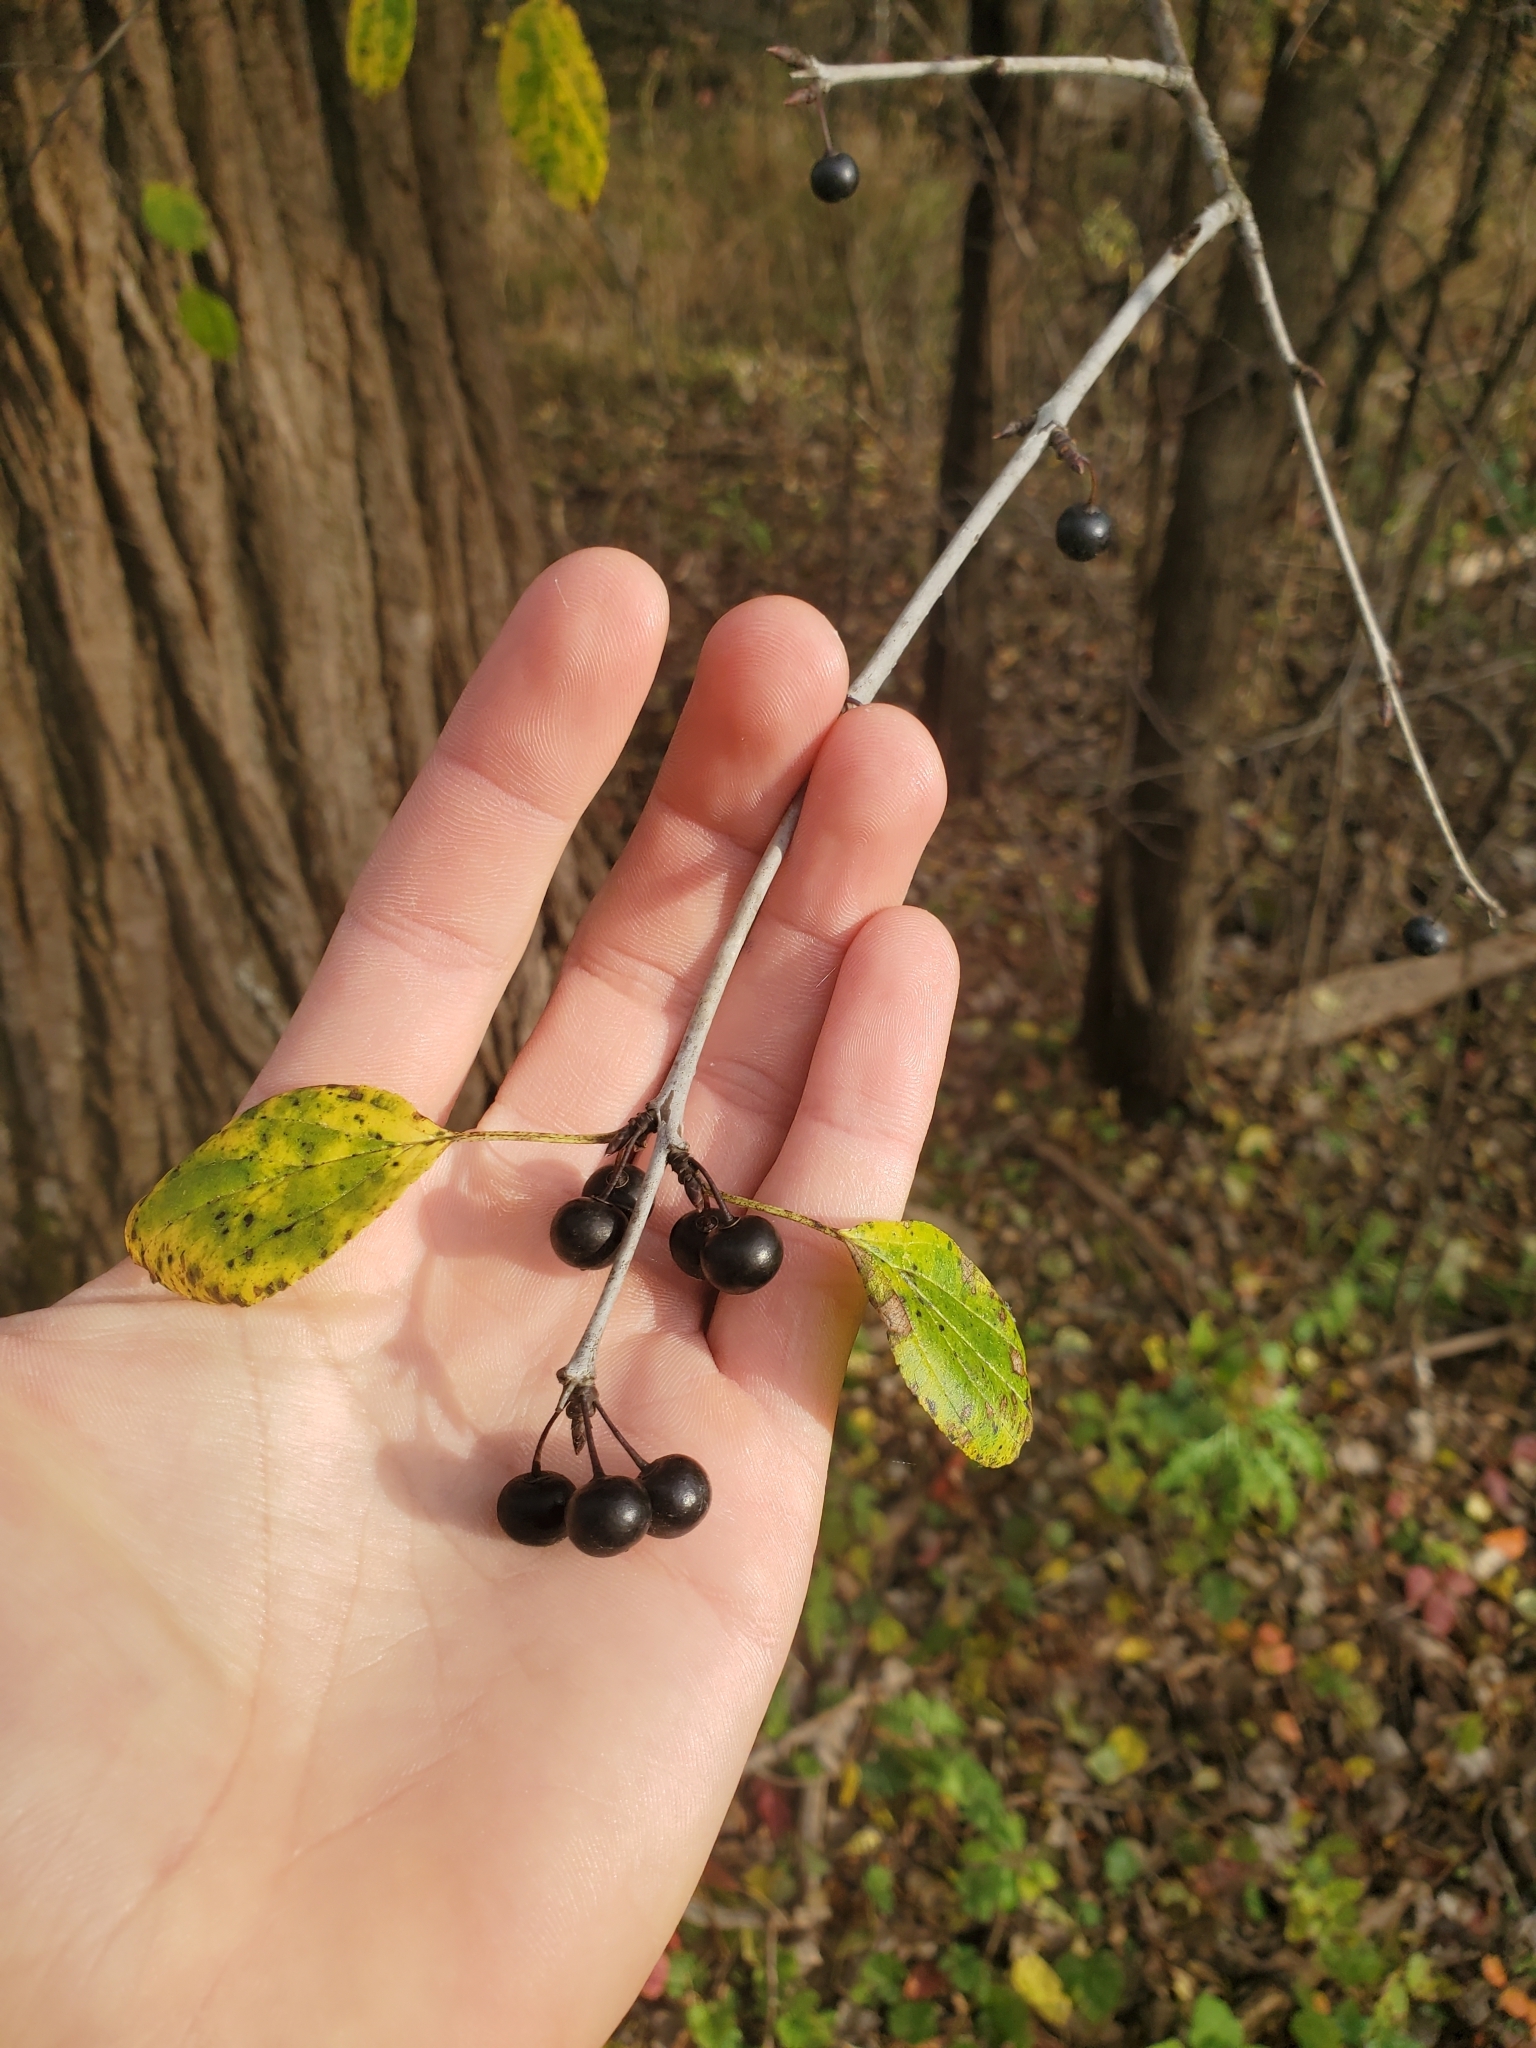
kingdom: Plantae
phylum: Tracheophyta
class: Magnoliopsida
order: Rosales
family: Rhamnaceae
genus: Rhamnus
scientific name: Rhamnus cathartica
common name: Common buckthorn
